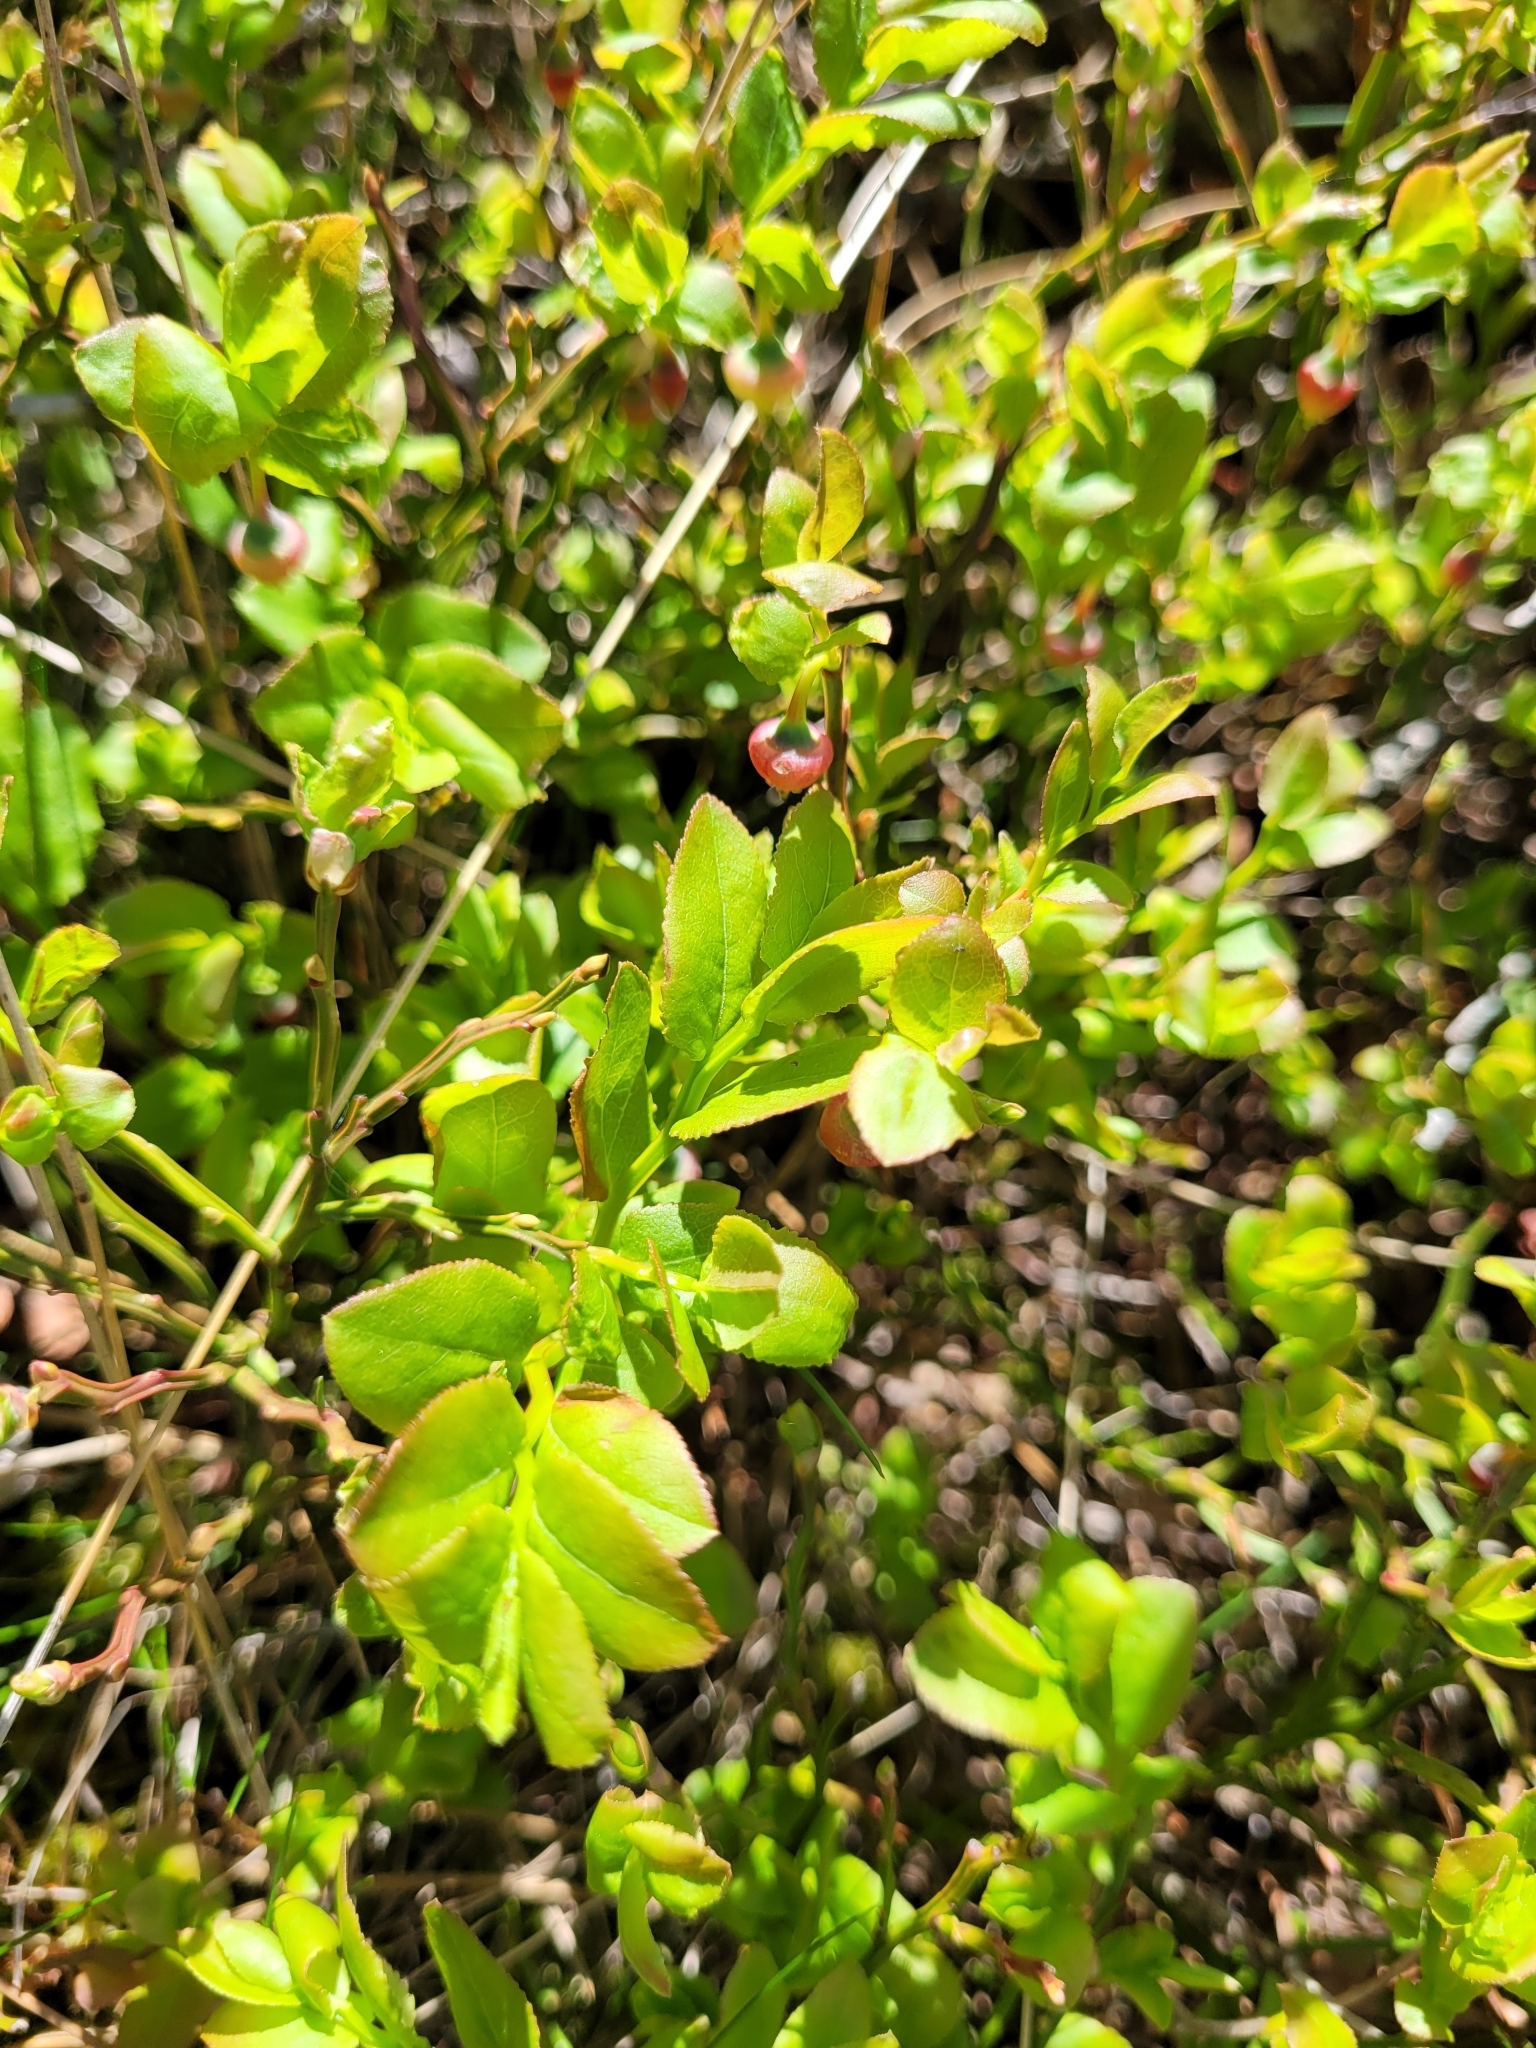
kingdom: Plantae
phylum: Tracheophyta
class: Magnoliopsida
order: Ericales
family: Ericaceae
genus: Vaccinium
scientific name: Vaccinium myrtillus
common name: Bilberry
